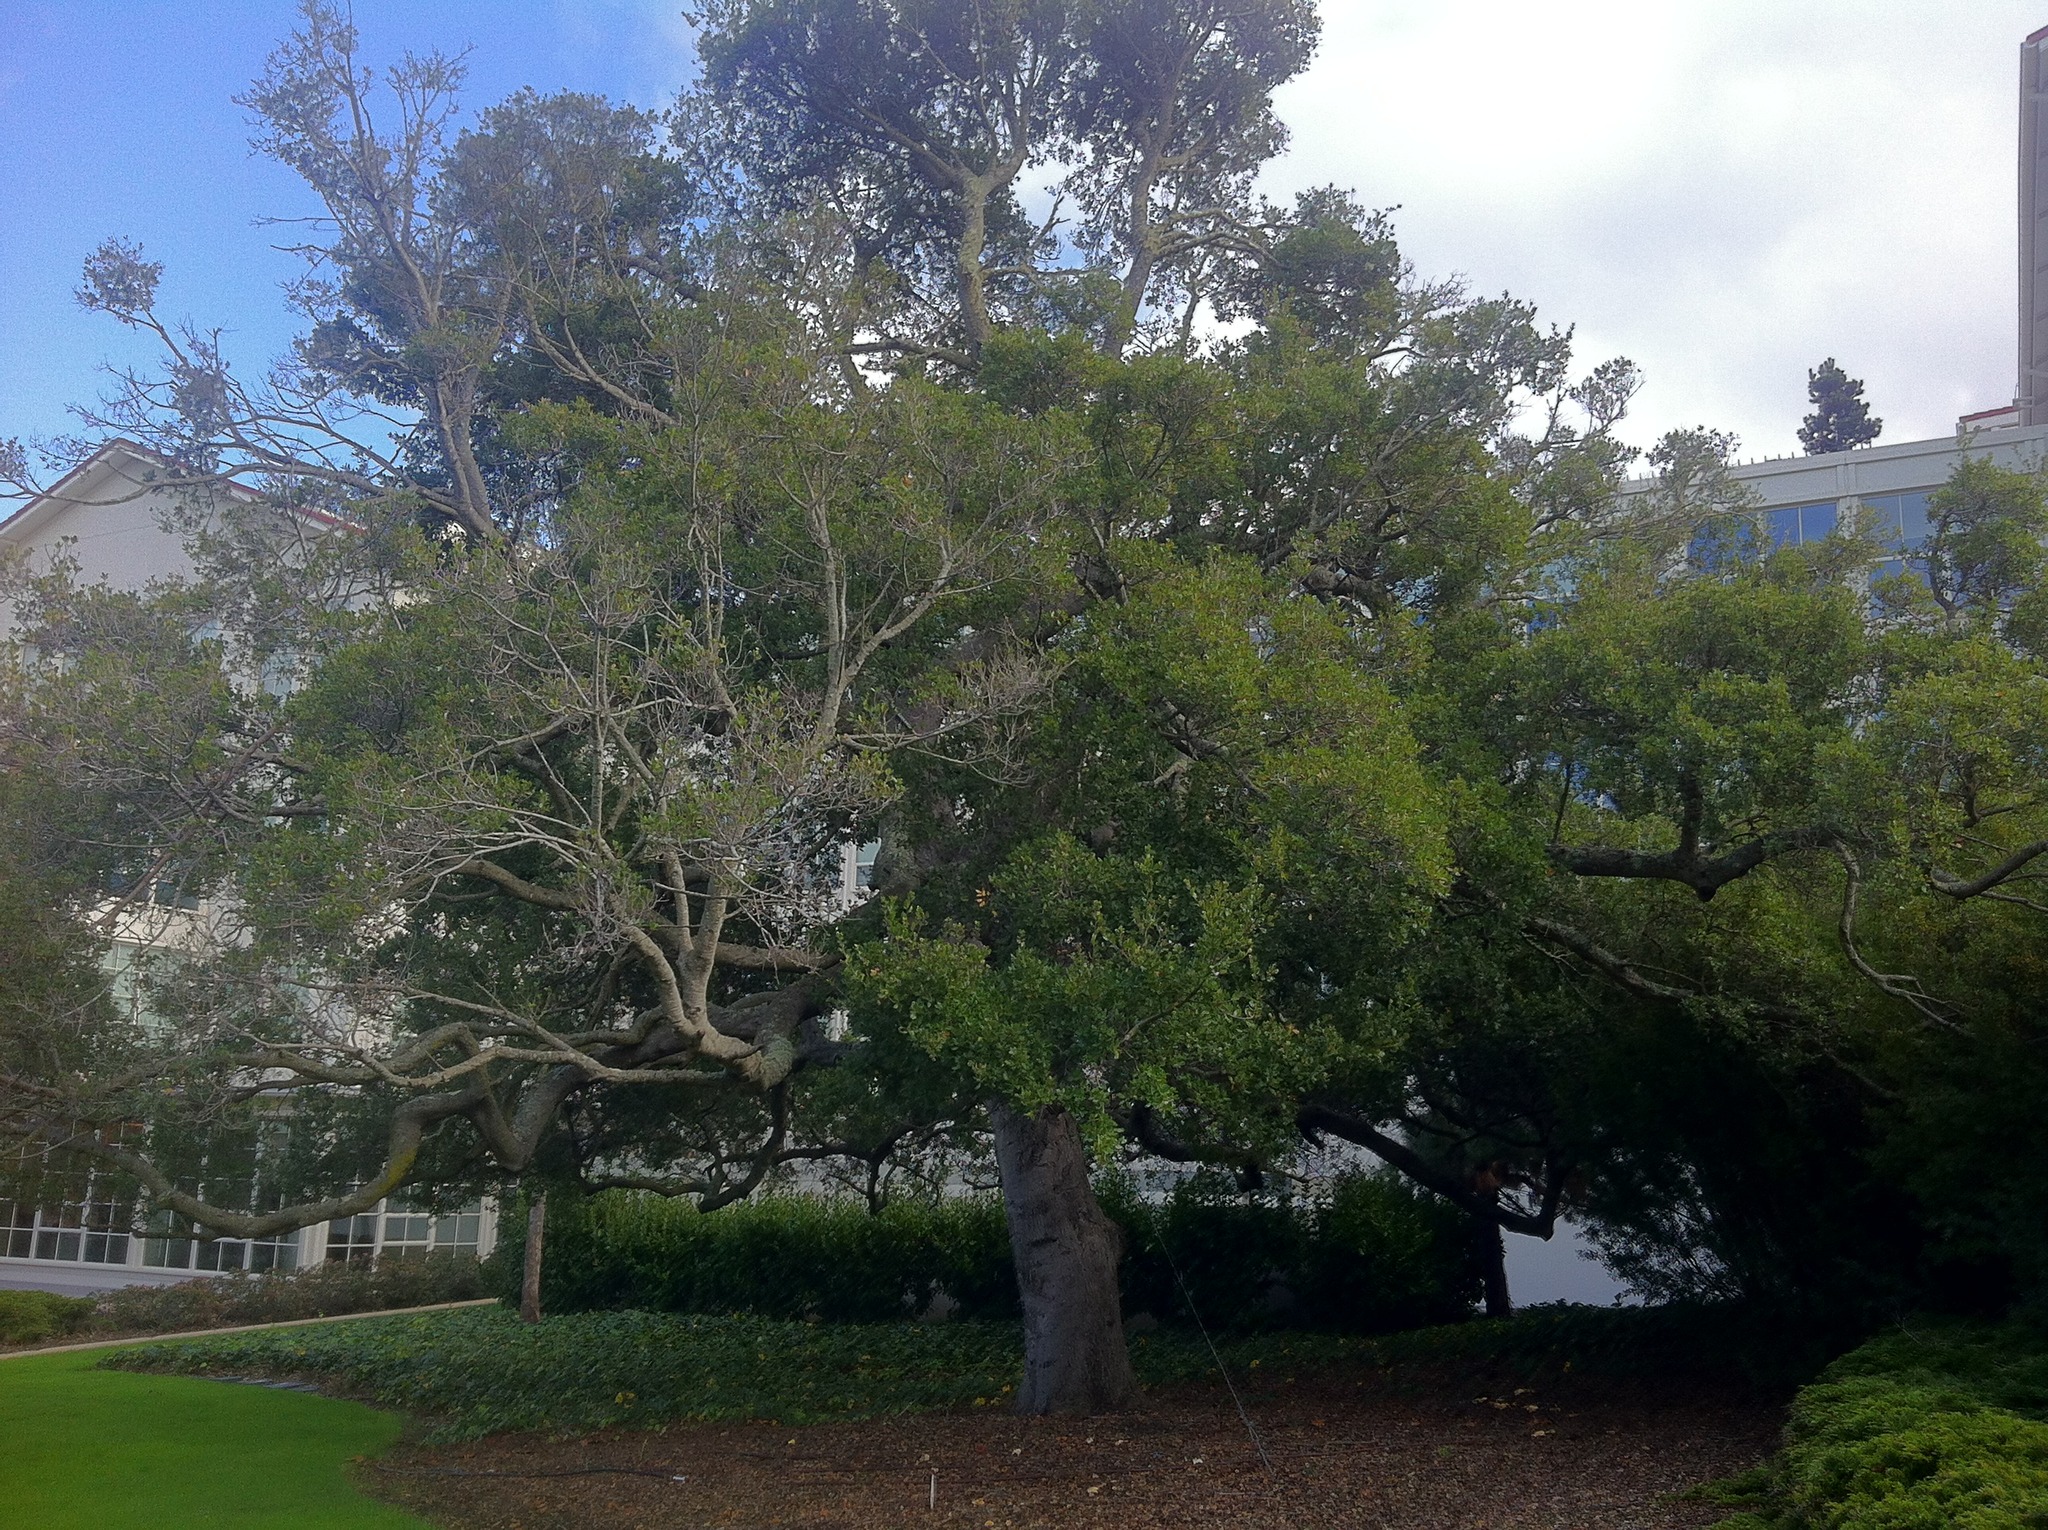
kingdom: Plantae
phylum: Tracheophyta
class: Magnoliopsida
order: Fagales
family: Fagaceae
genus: Quercus
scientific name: Quercus agrifolia
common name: California live oak
